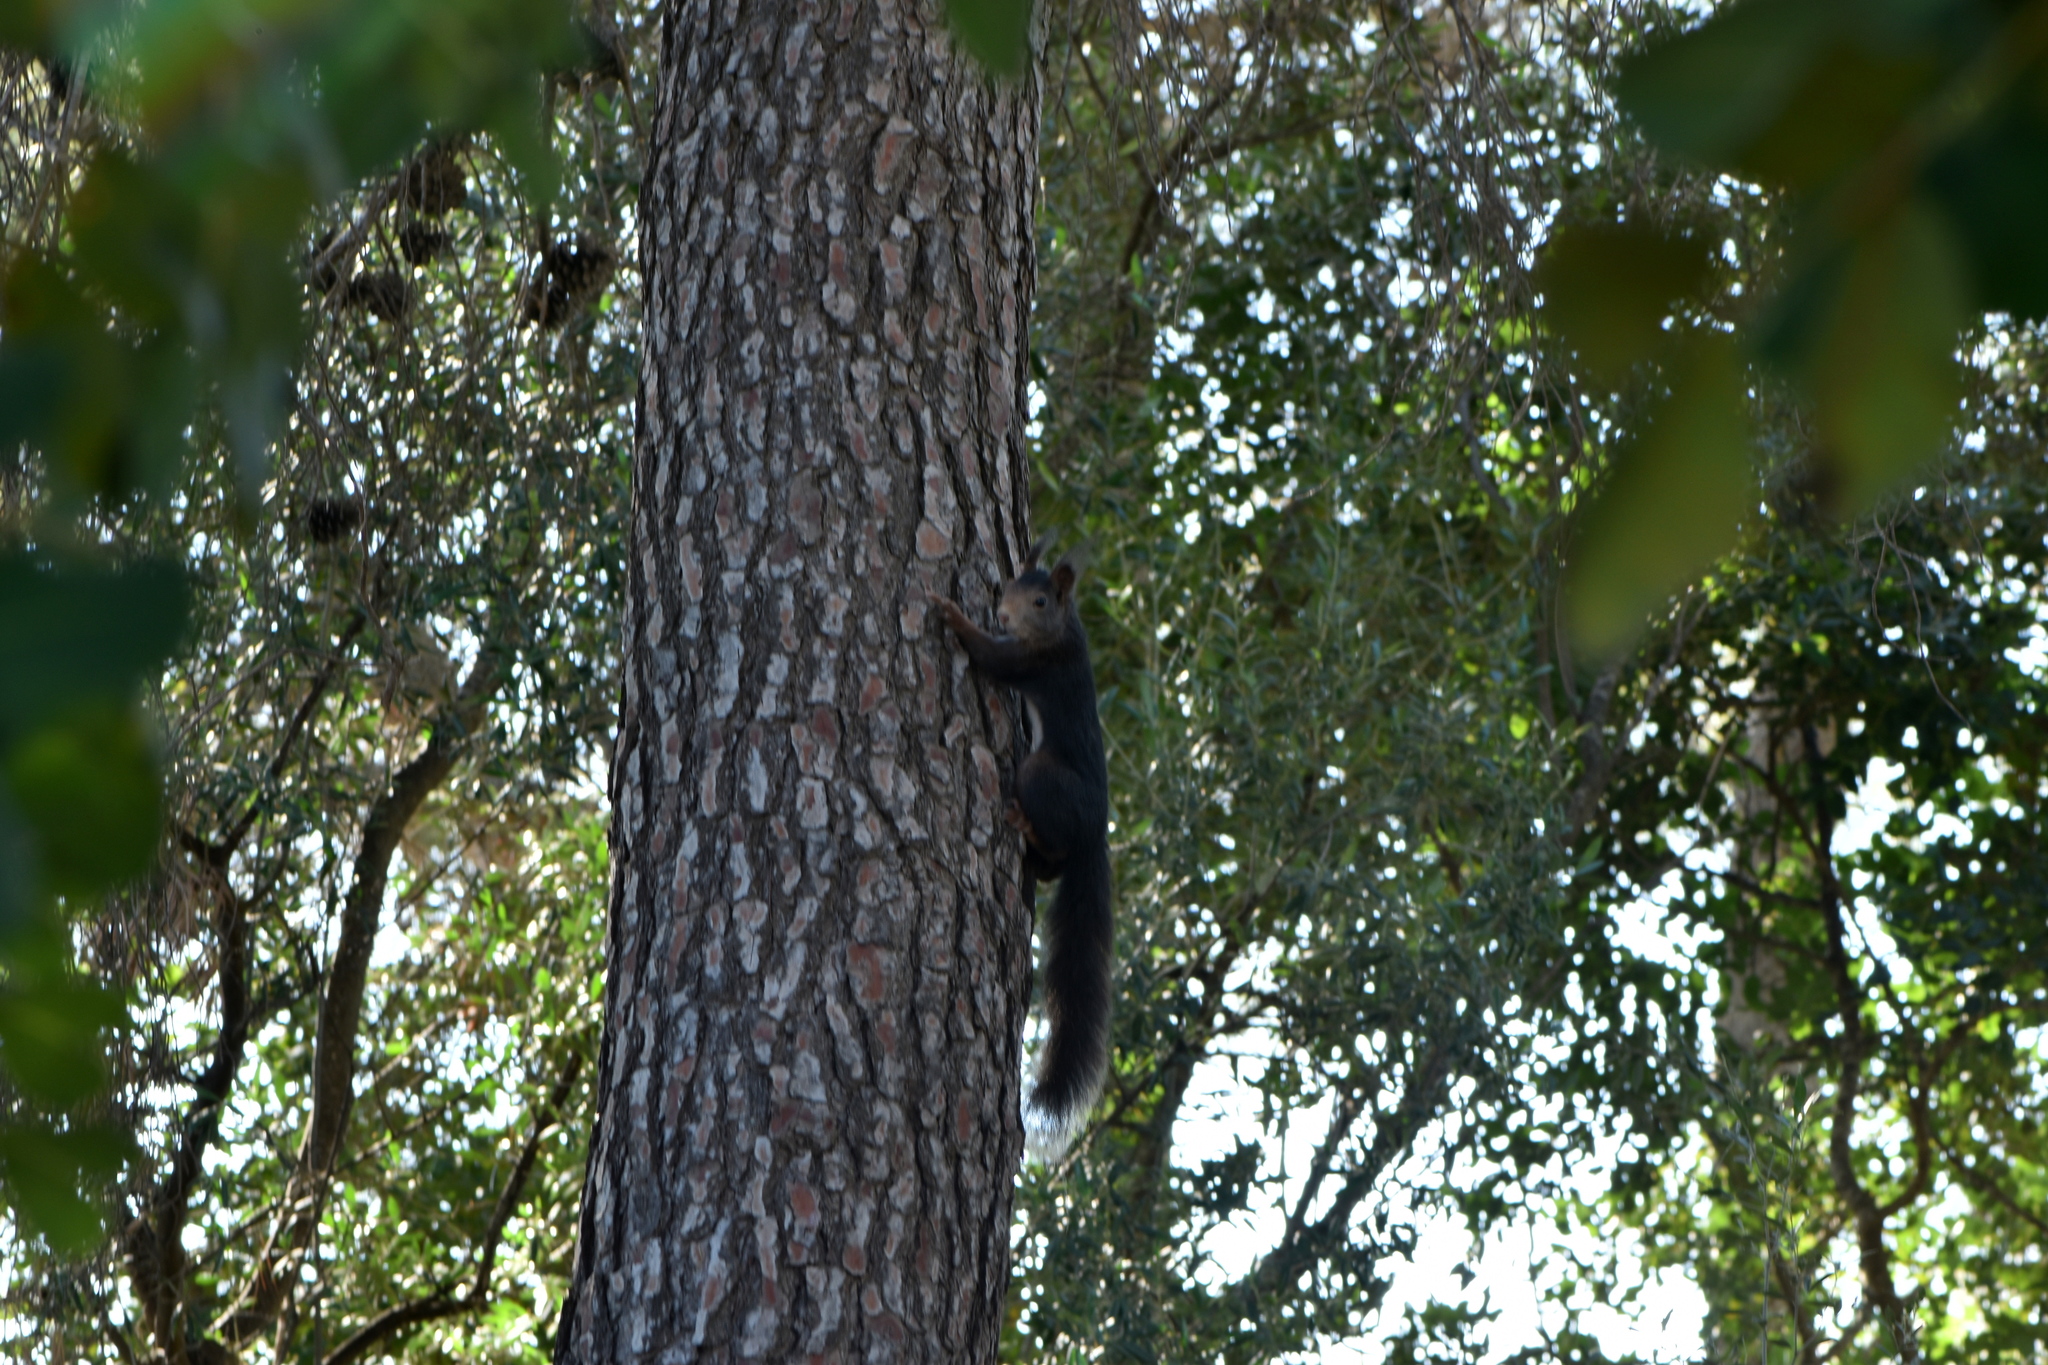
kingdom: Animalia
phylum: Chordata
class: Mammalia
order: Rodentia
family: Sciuridae
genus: Sciurus
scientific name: Sciurus vulgaris
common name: Eurasian red squirrel
